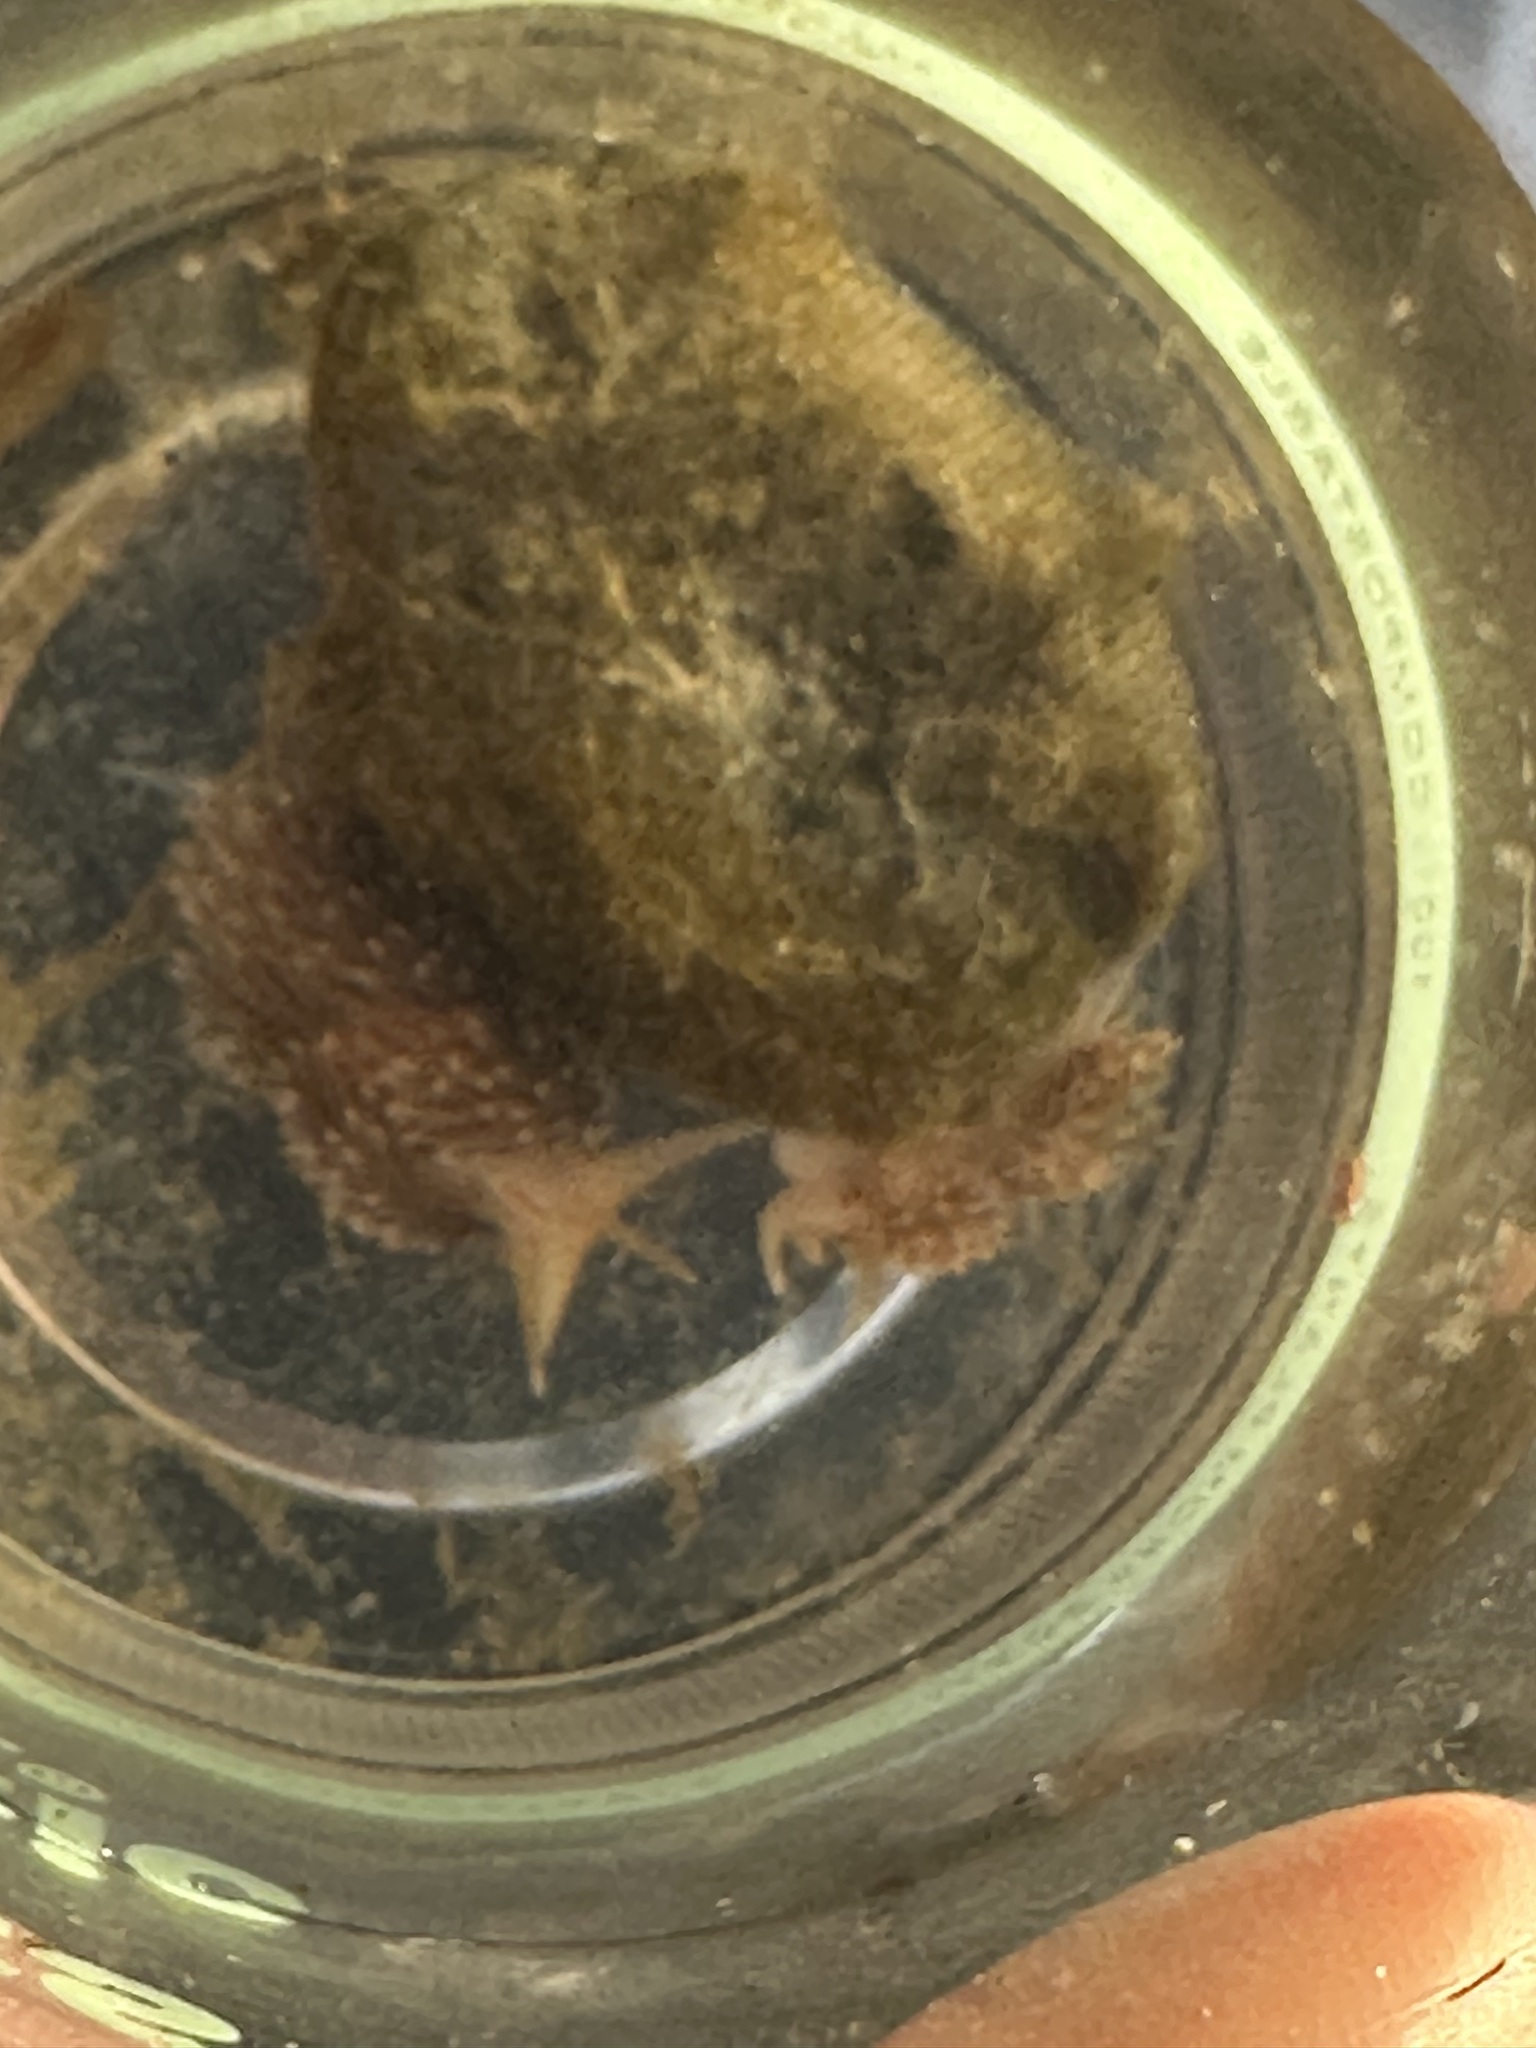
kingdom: Animalia
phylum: Mollusca
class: Gastropoda
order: Nudibranchia
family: Myrrhinidae
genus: Hermissenda
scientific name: Hermissenda crassicornis
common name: Hermissenda
